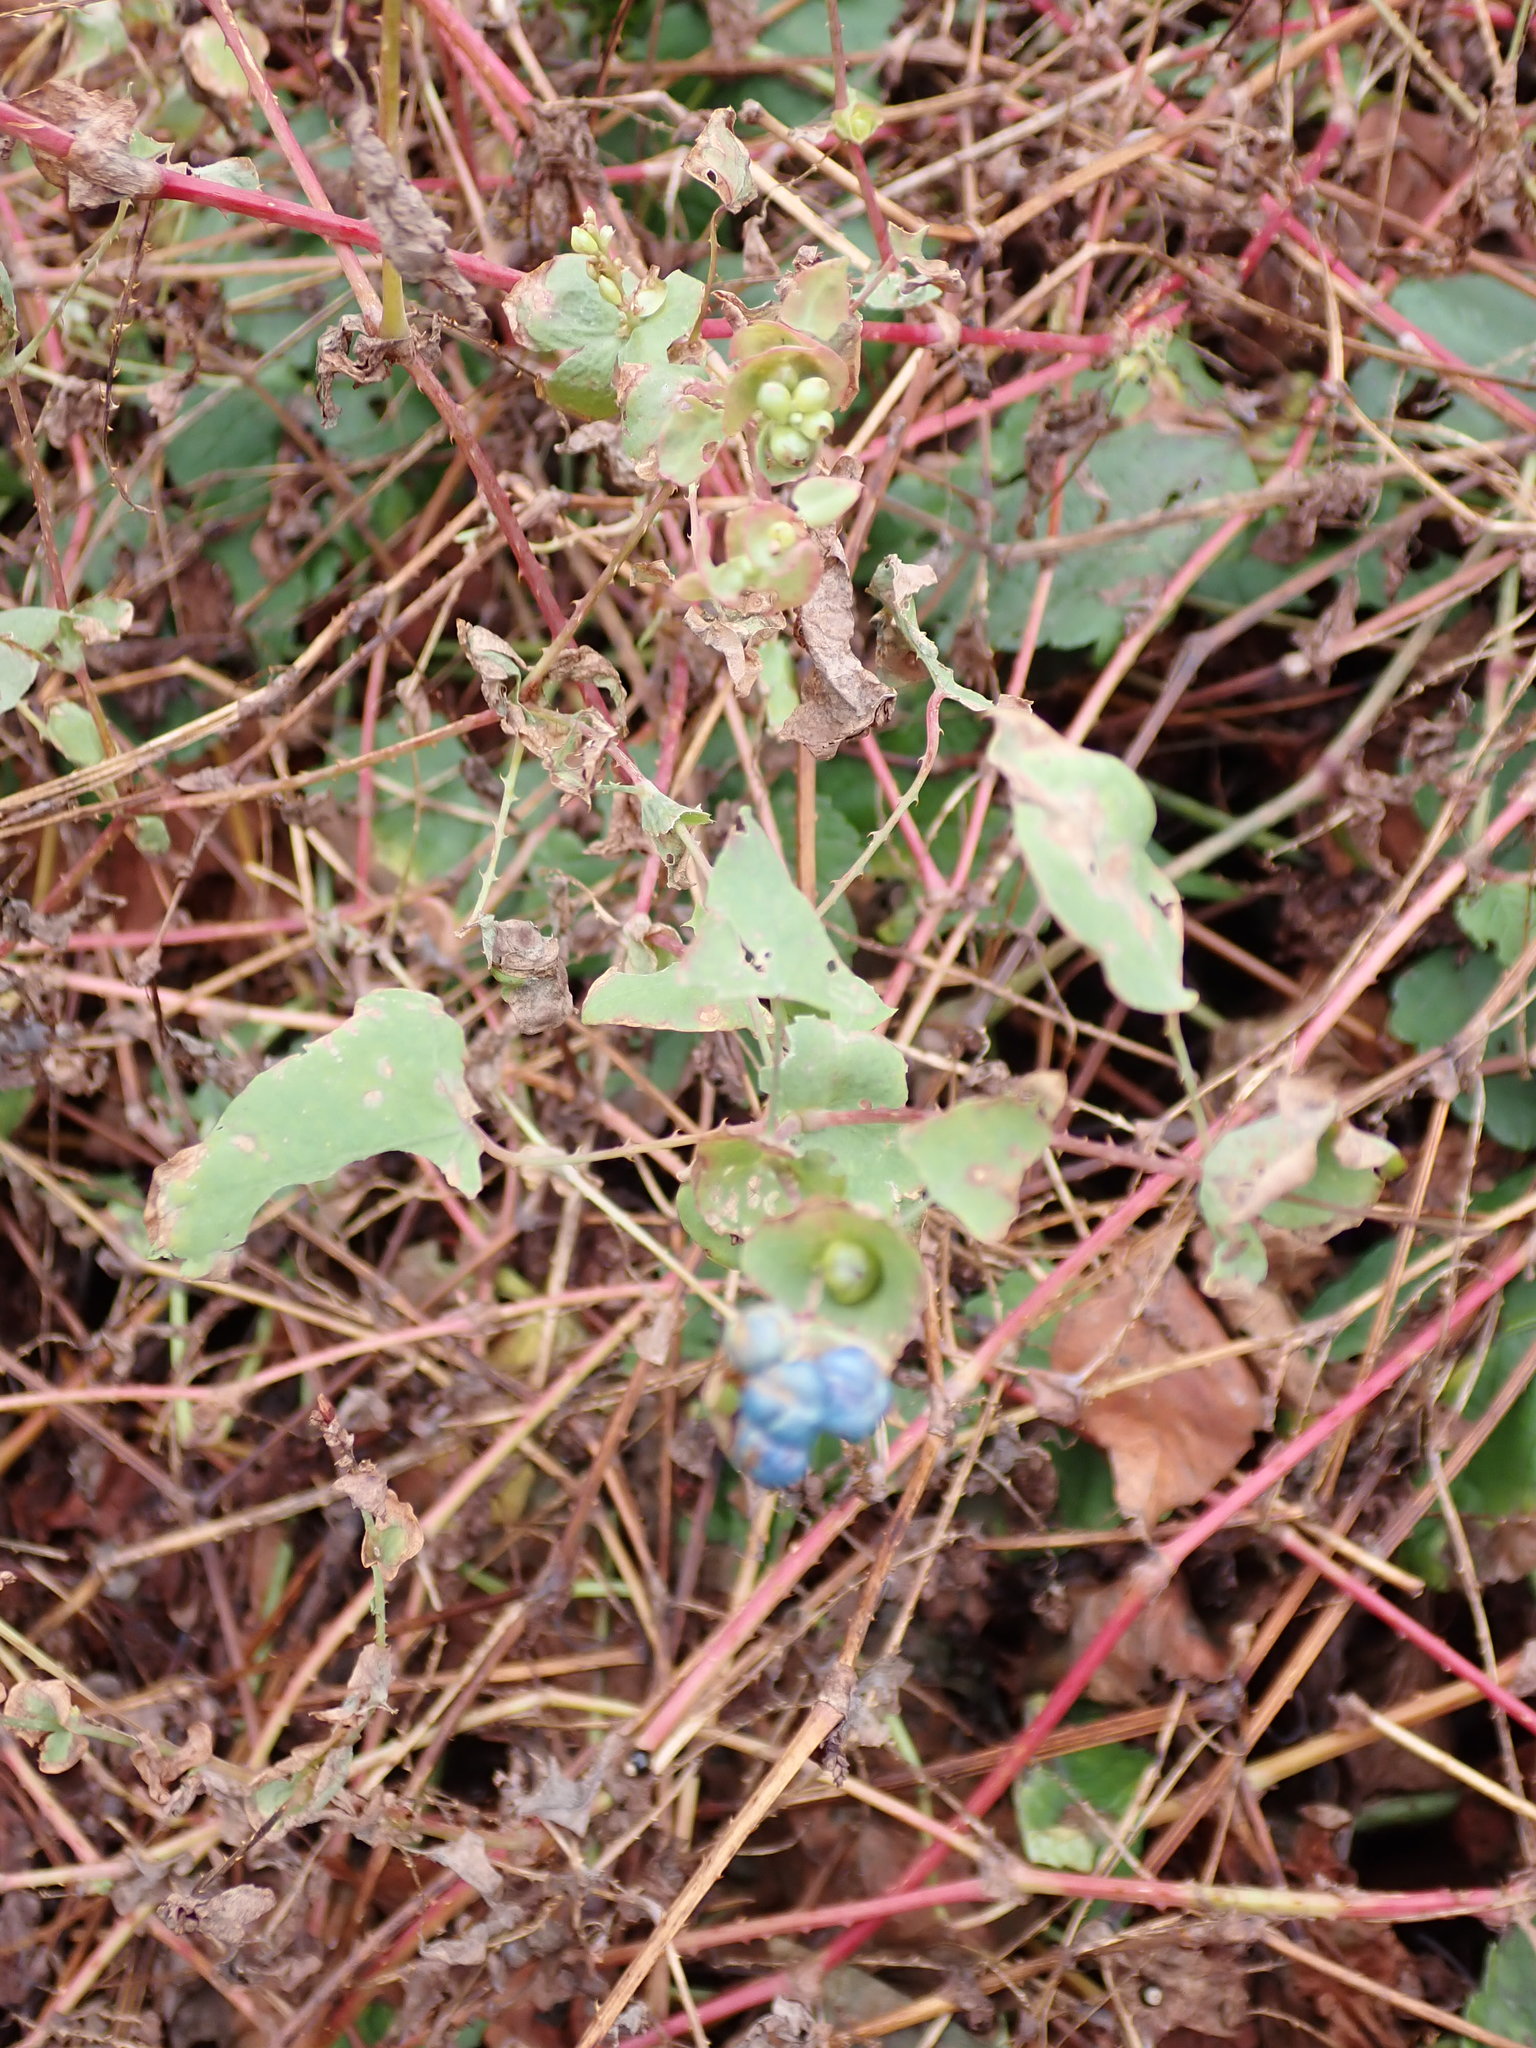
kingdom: Plantae
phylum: Tracheophyta
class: Magnoliopsida
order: Caryophyllales
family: Polygonaceae
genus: Persicaria
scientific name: Persicaria perfoliata
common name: Asiatic tearthumb
